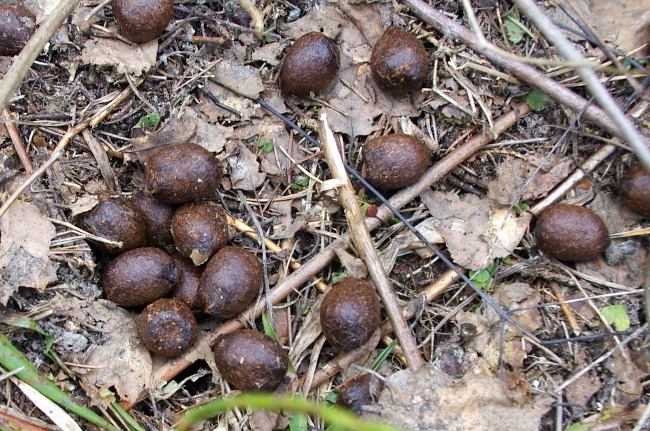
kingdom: Animalia
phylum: Chordata
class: Mammalia
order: Artiodactyla
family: Cervidae
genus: Alces
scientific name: Alces alces
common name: Moose
